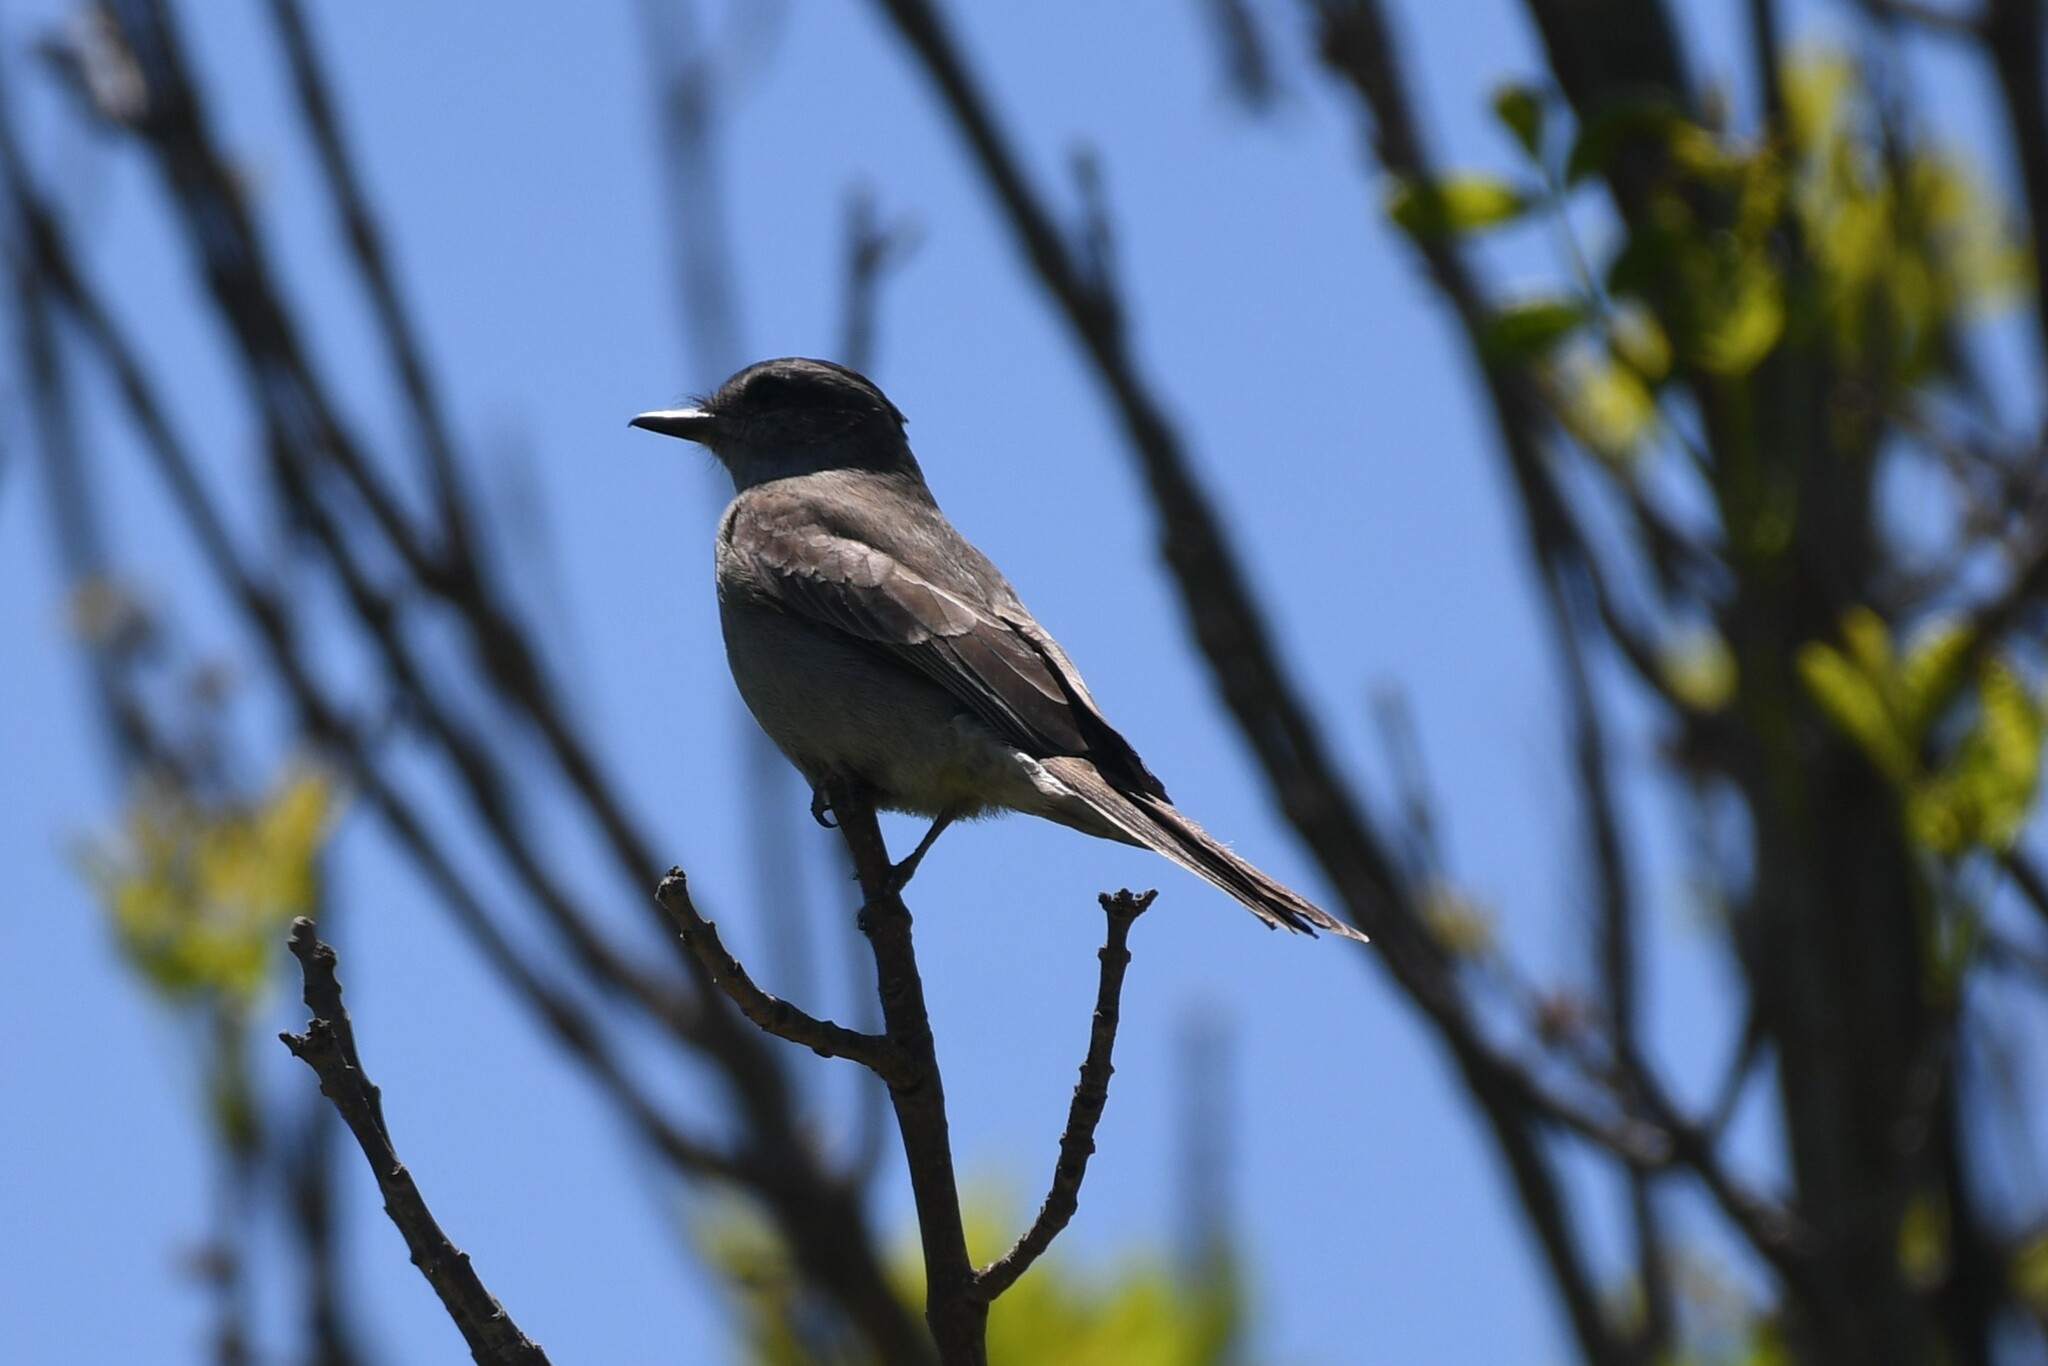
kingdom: Animalia
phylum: Chordata
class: Aves
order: Passeriformes
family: Tyrannidae
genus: Empidonomus
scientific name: Empidonomus aurantioatrocristatus
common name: Crowned slaty flycatcher
